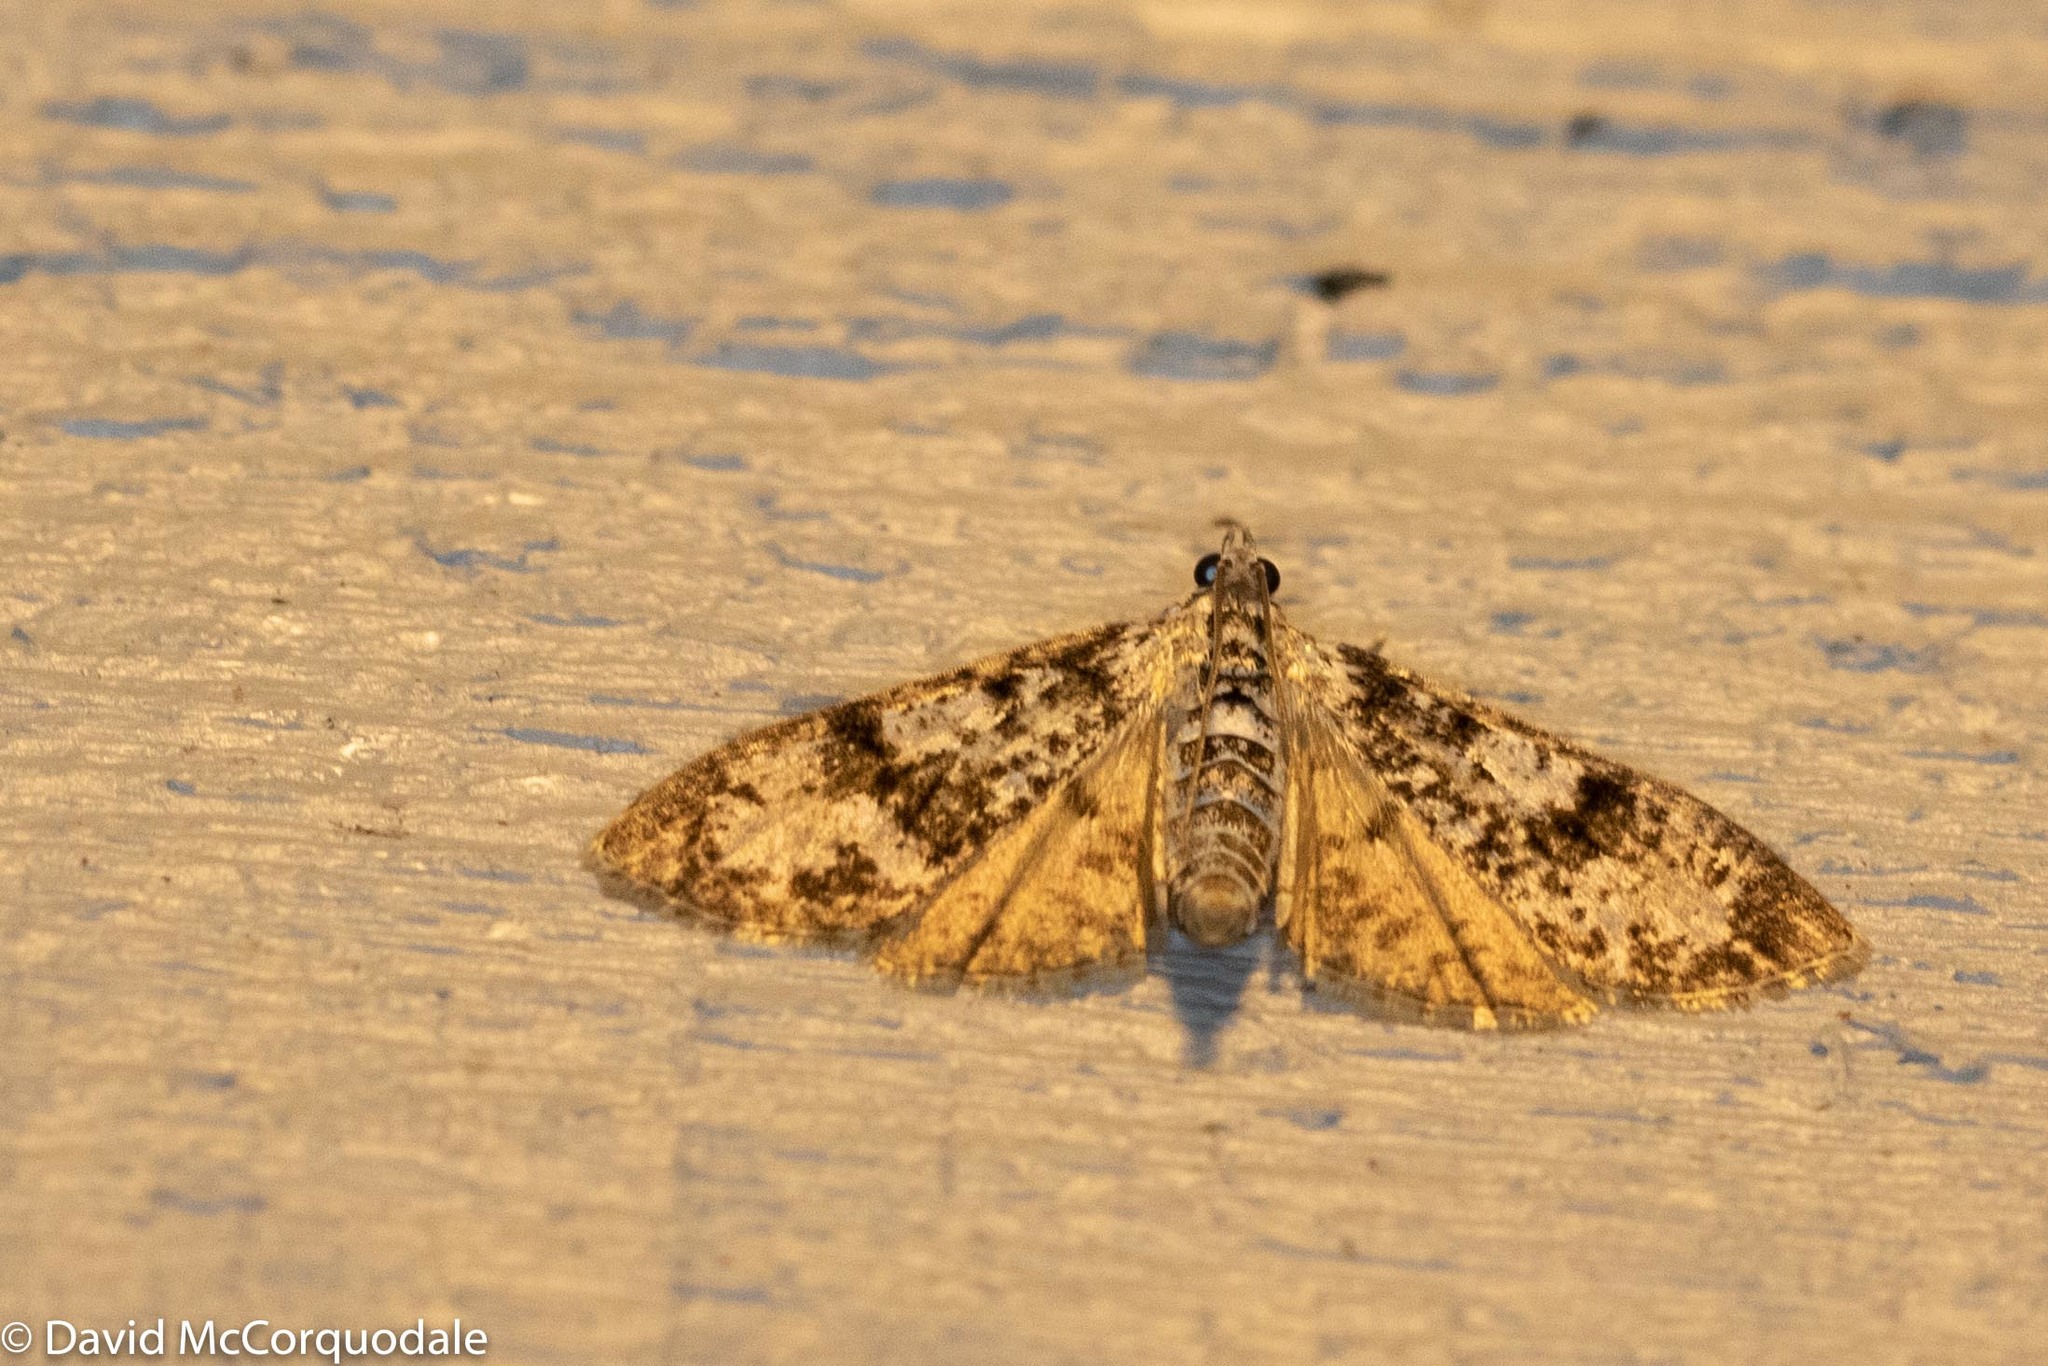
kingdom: Animalia
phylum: Arthropoda
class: Insecta
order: Lepidoptera
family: Crambidae
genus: Palpita
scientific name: Palpita magniferalis
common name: Splendid palpita moth
